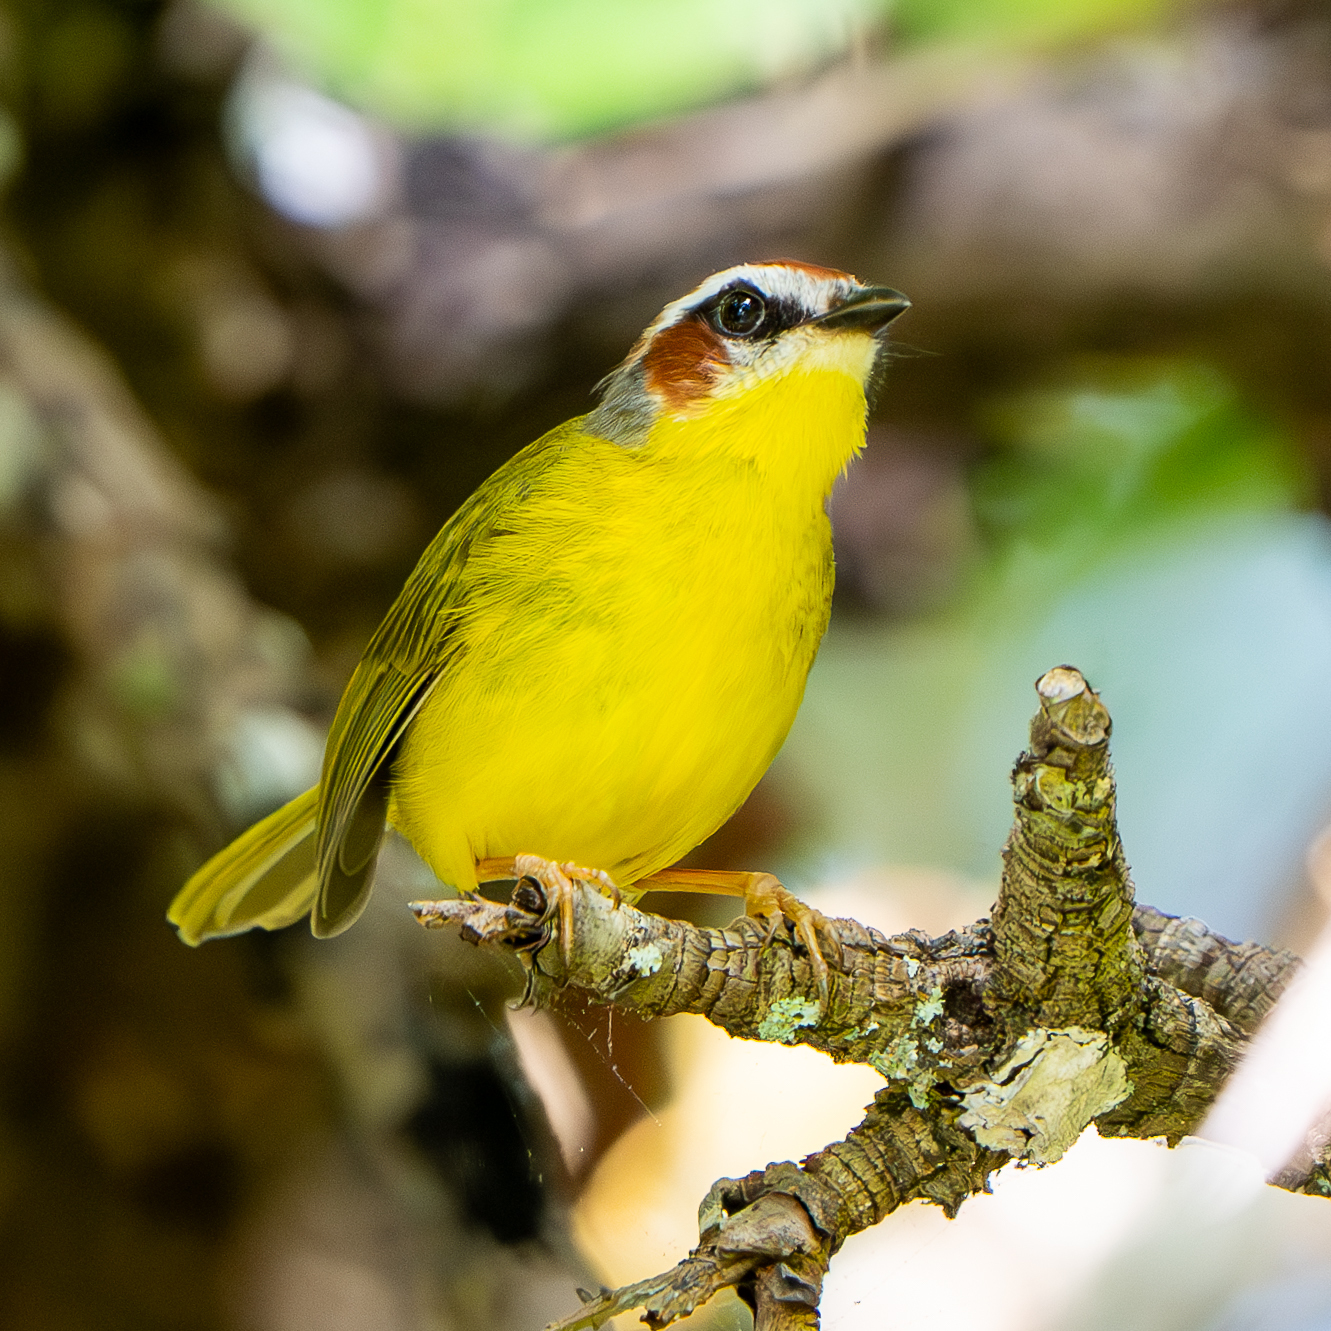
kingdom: Animalia
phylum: Chordata
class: Aves
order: Passeriformes
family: Parulidae
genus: Basileuterus
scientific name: Basileuterus rufifrons
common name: Rufous-capped warbler
